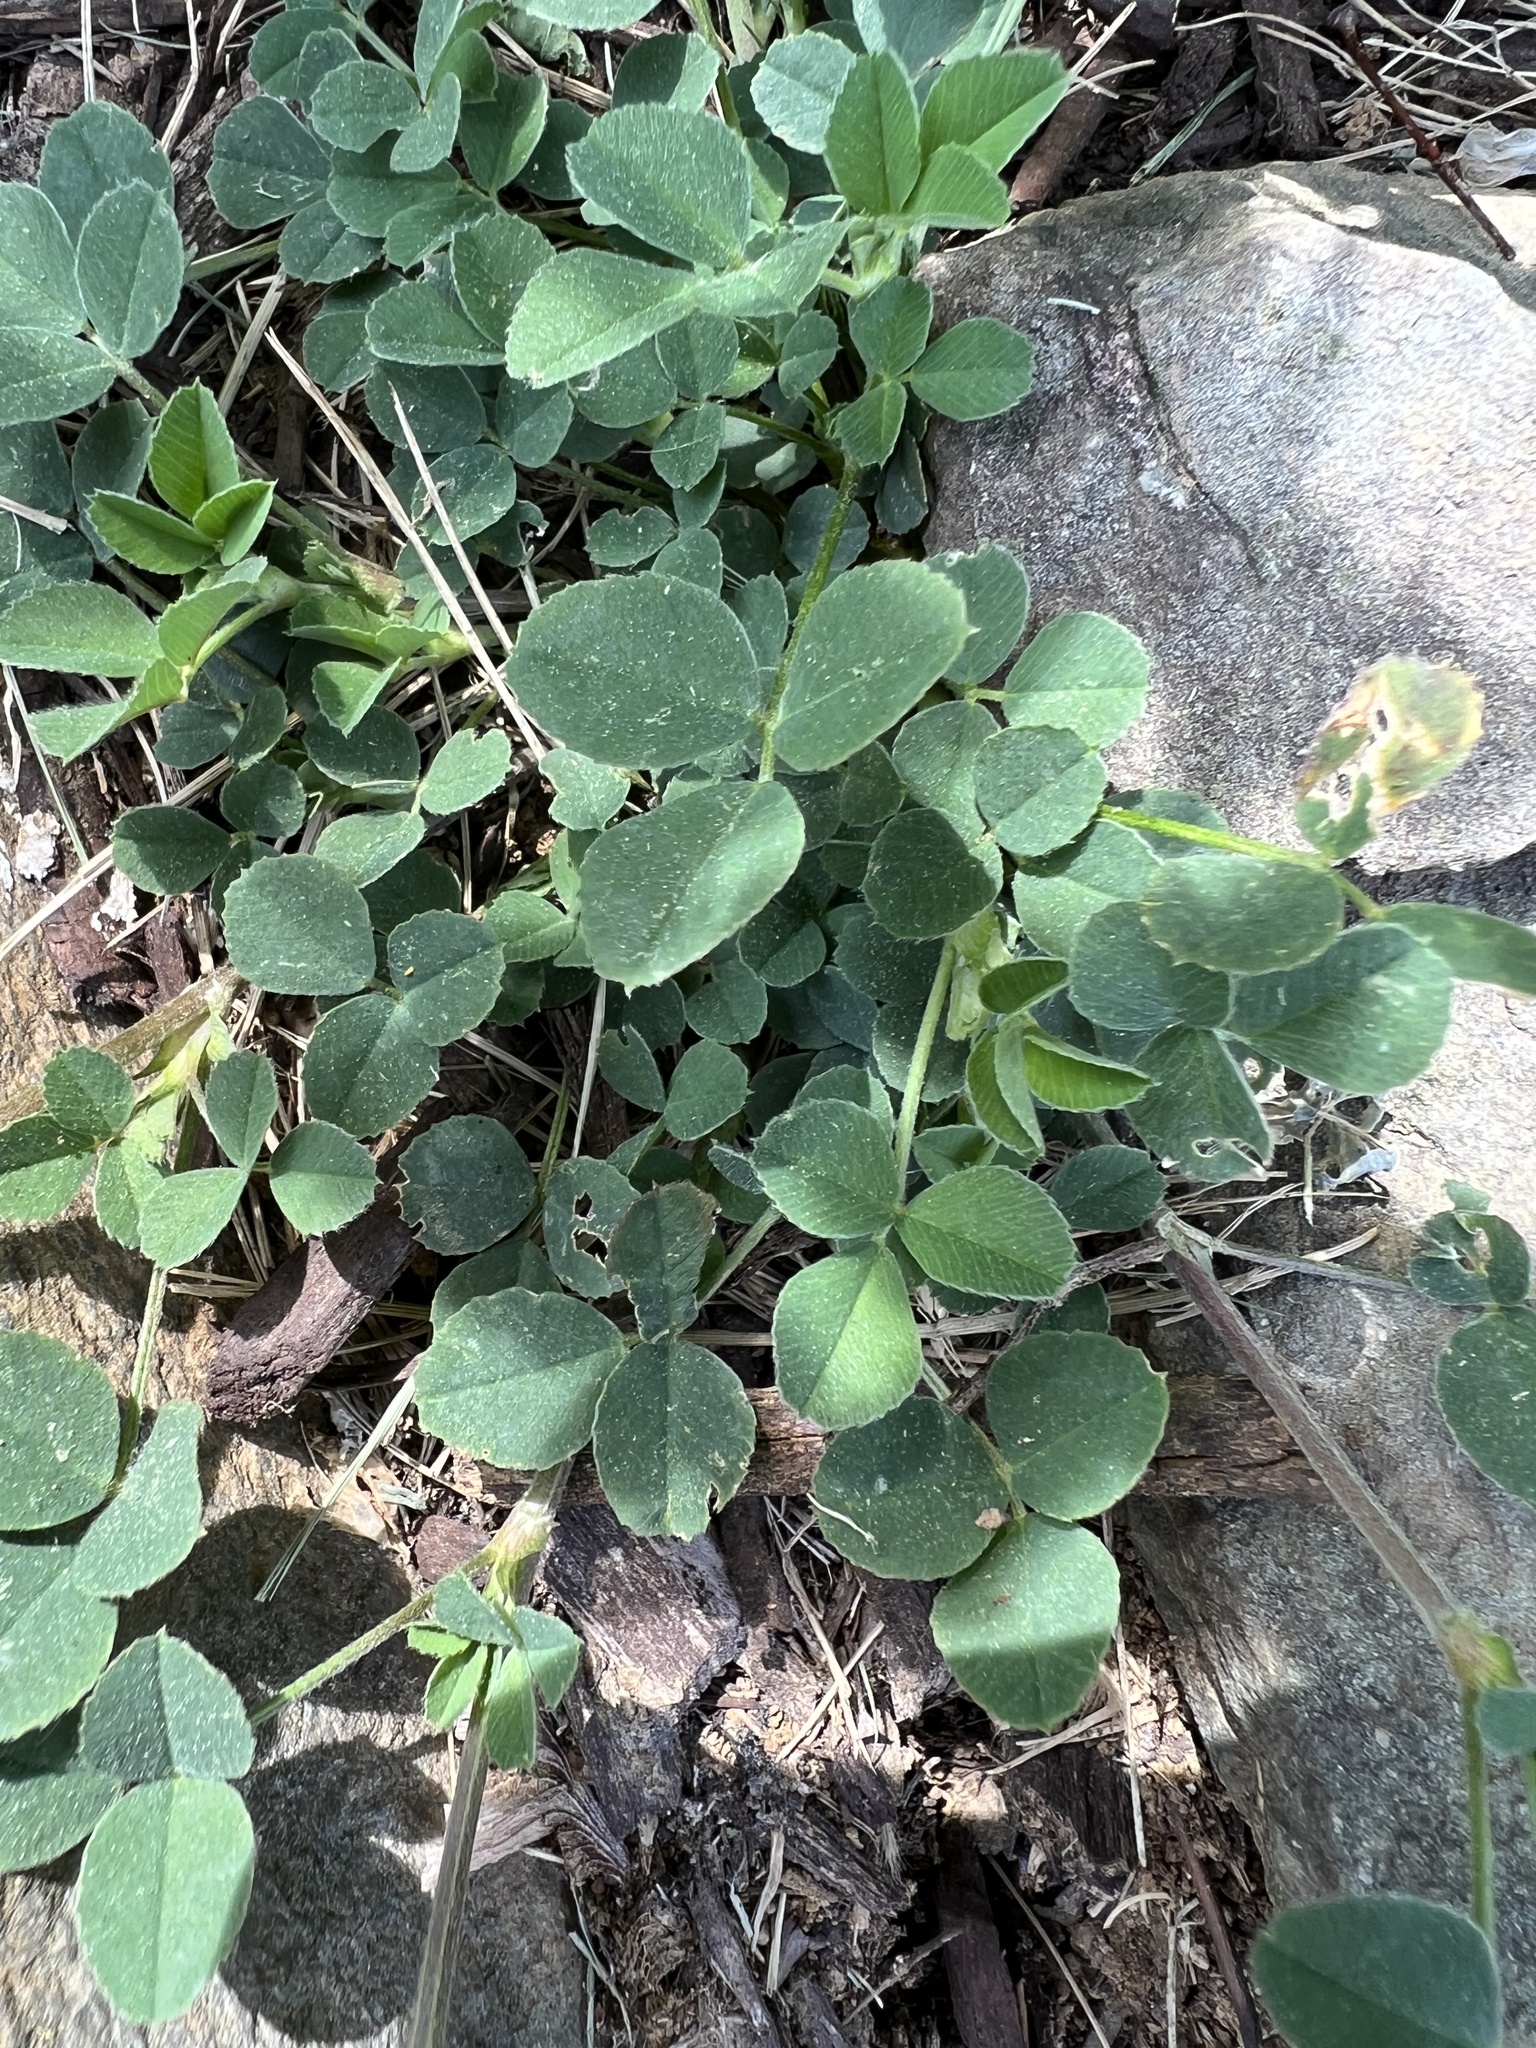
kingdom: Plantae
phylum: Tracheophyta
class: Magnoliopsida
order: Fabales
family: Fabaceae
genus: Medicago
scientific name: Medicago lupulina
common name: Black medick
